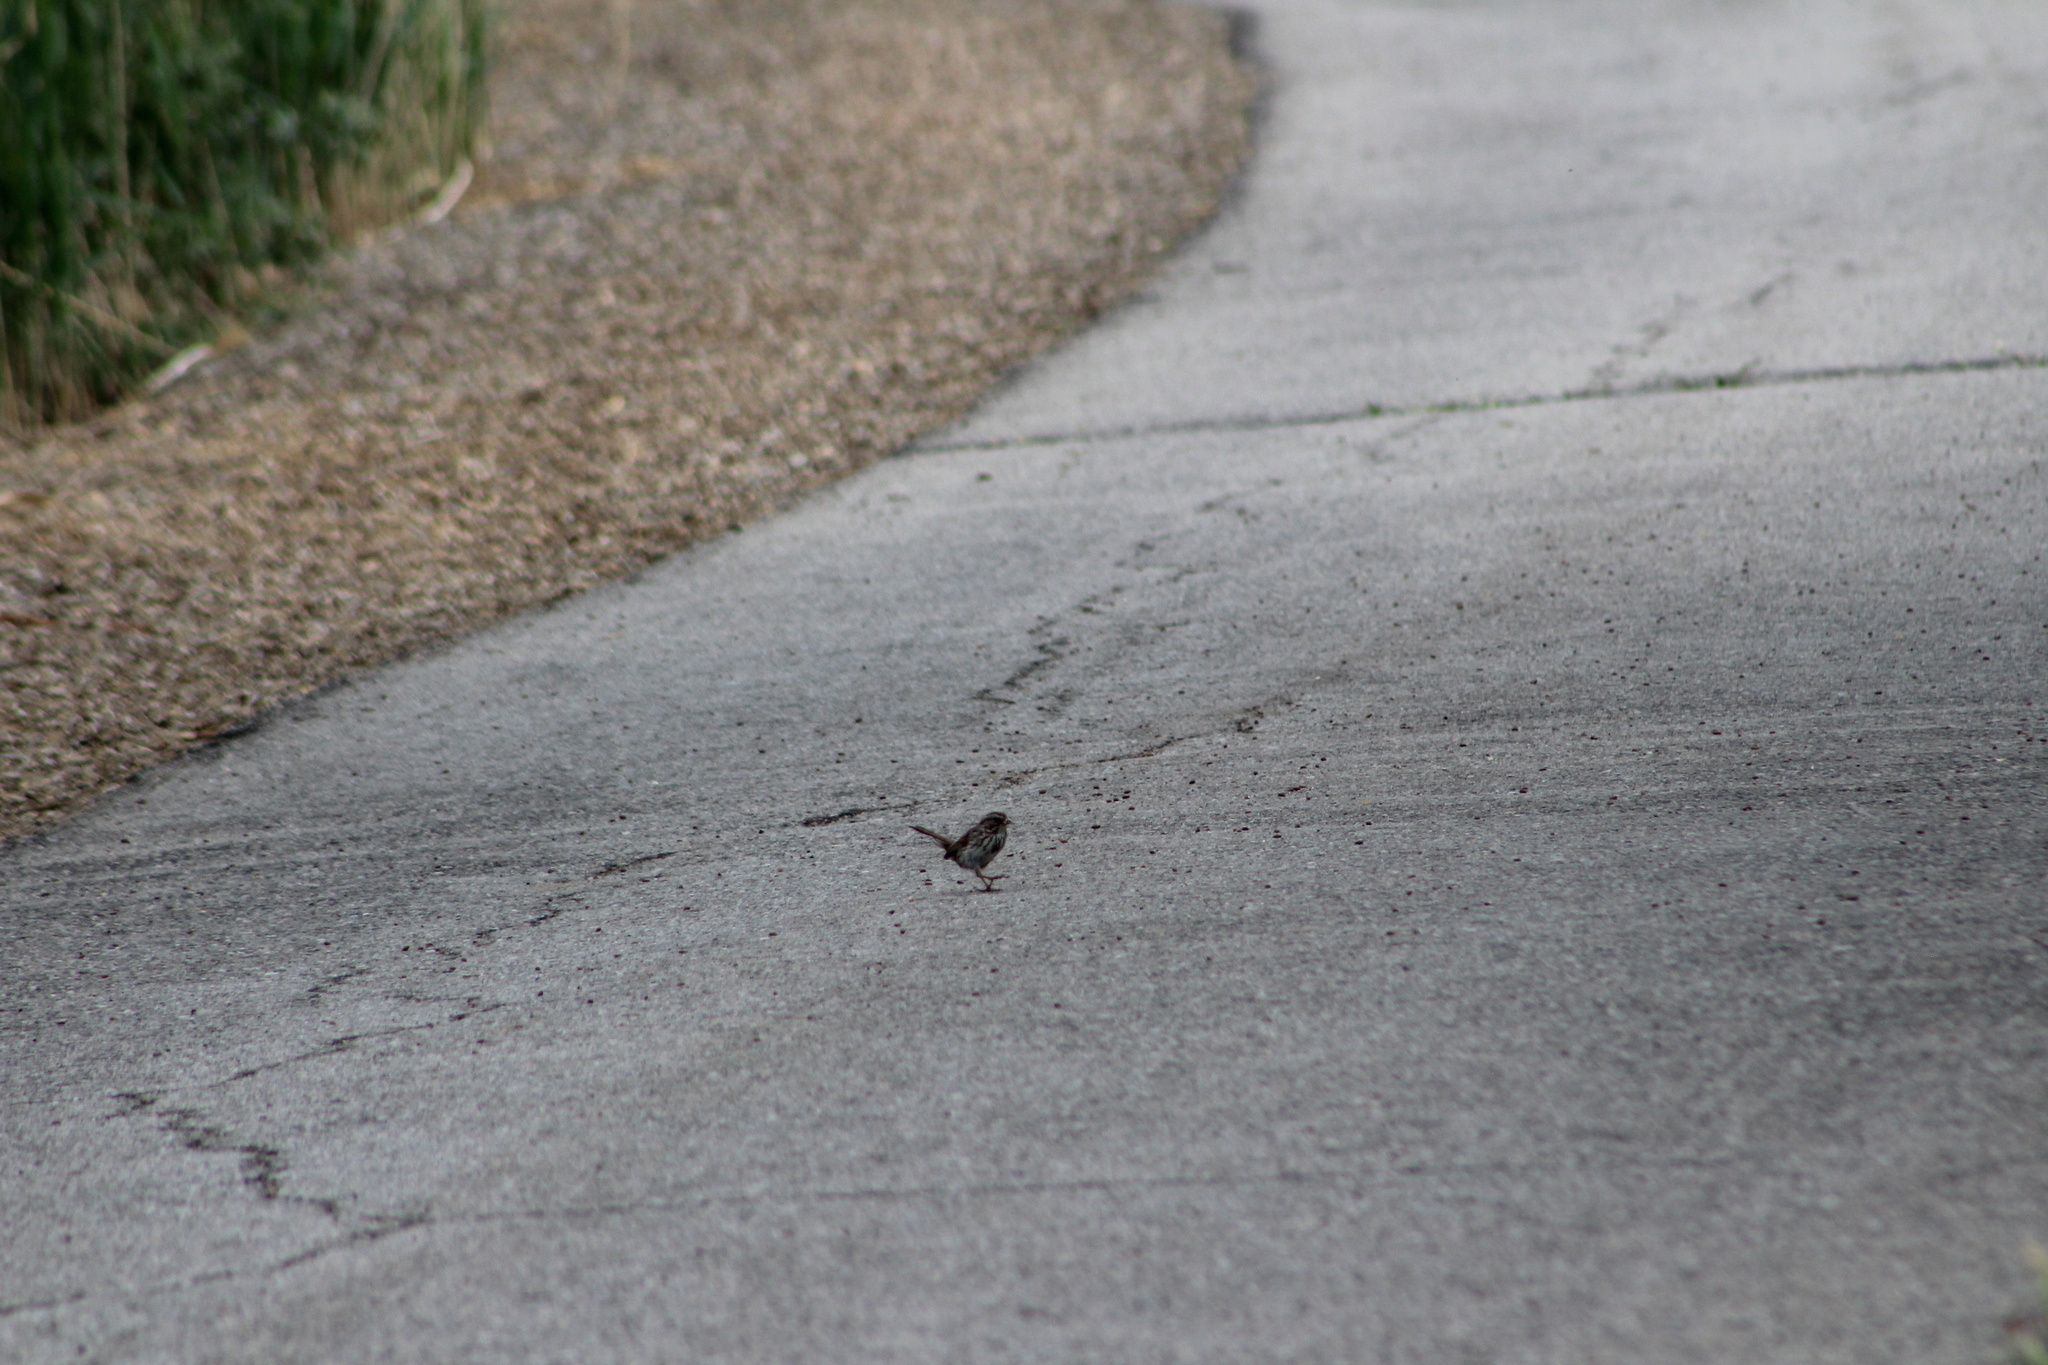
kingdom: Animalia
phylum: Chordata
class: Aves
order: Passeriformes
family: Passerellidae
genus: Melospiza
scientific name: Melospiza melodia
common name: Song sparrow
